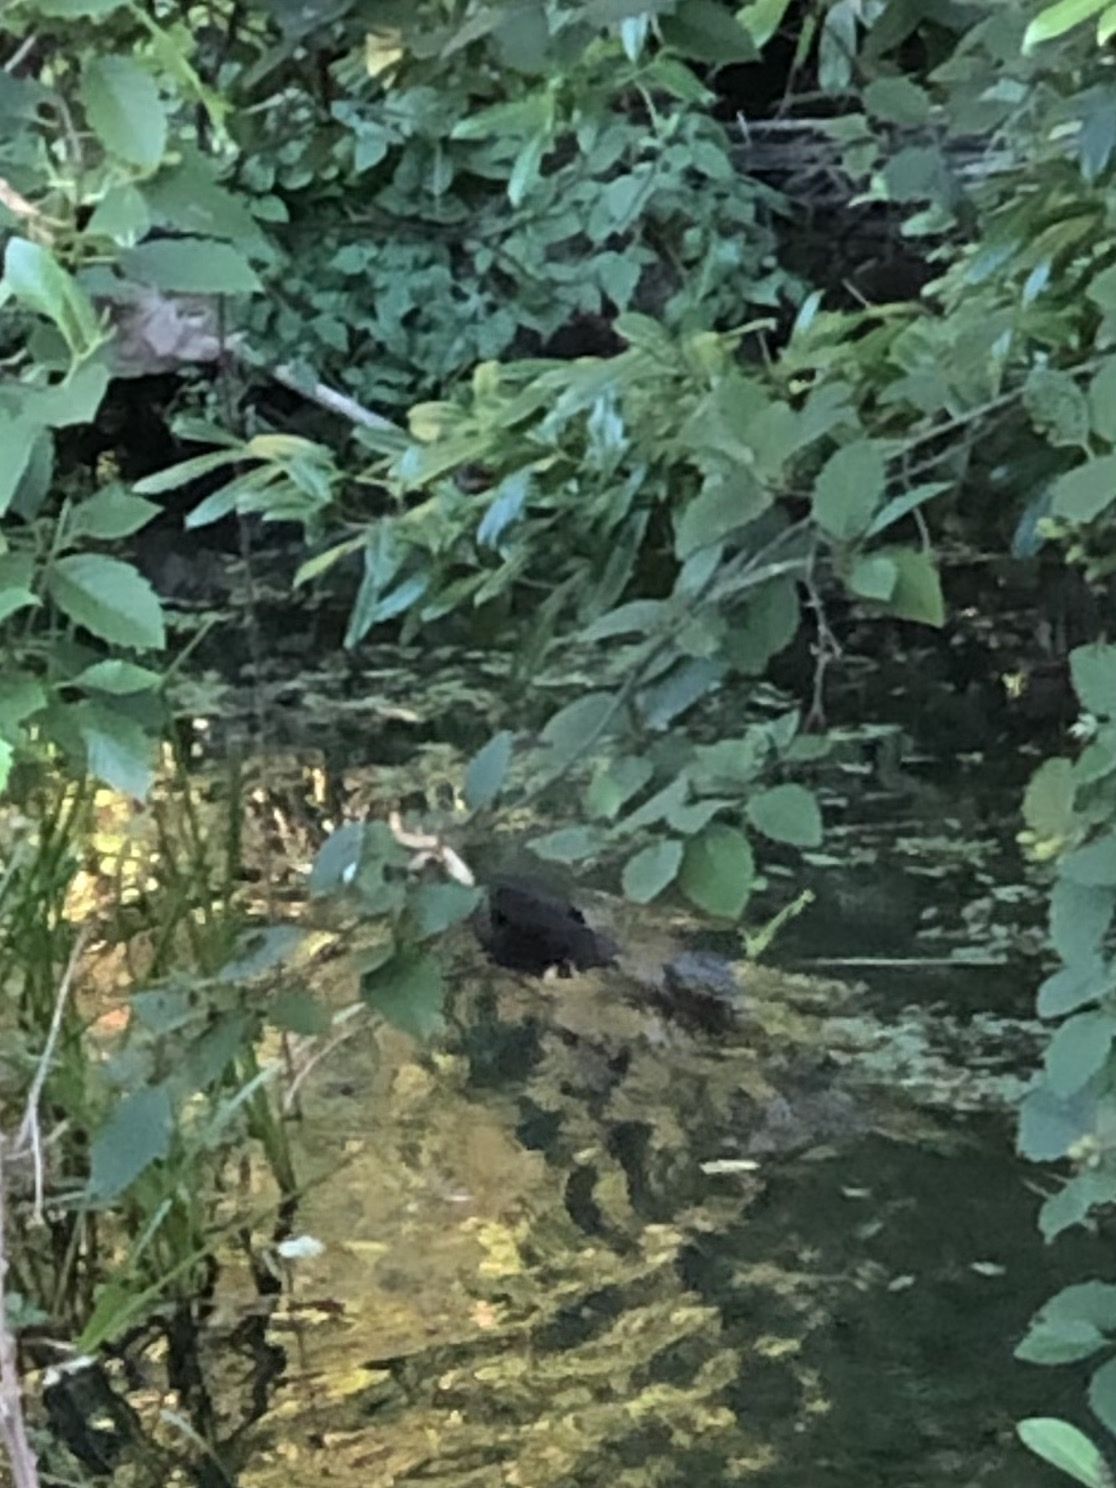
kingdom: Animalia
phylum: Chordata
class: Mammalia
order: Rodentia
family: Castoridae
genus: Castor
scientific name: Castor canadensis
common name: American beaver
